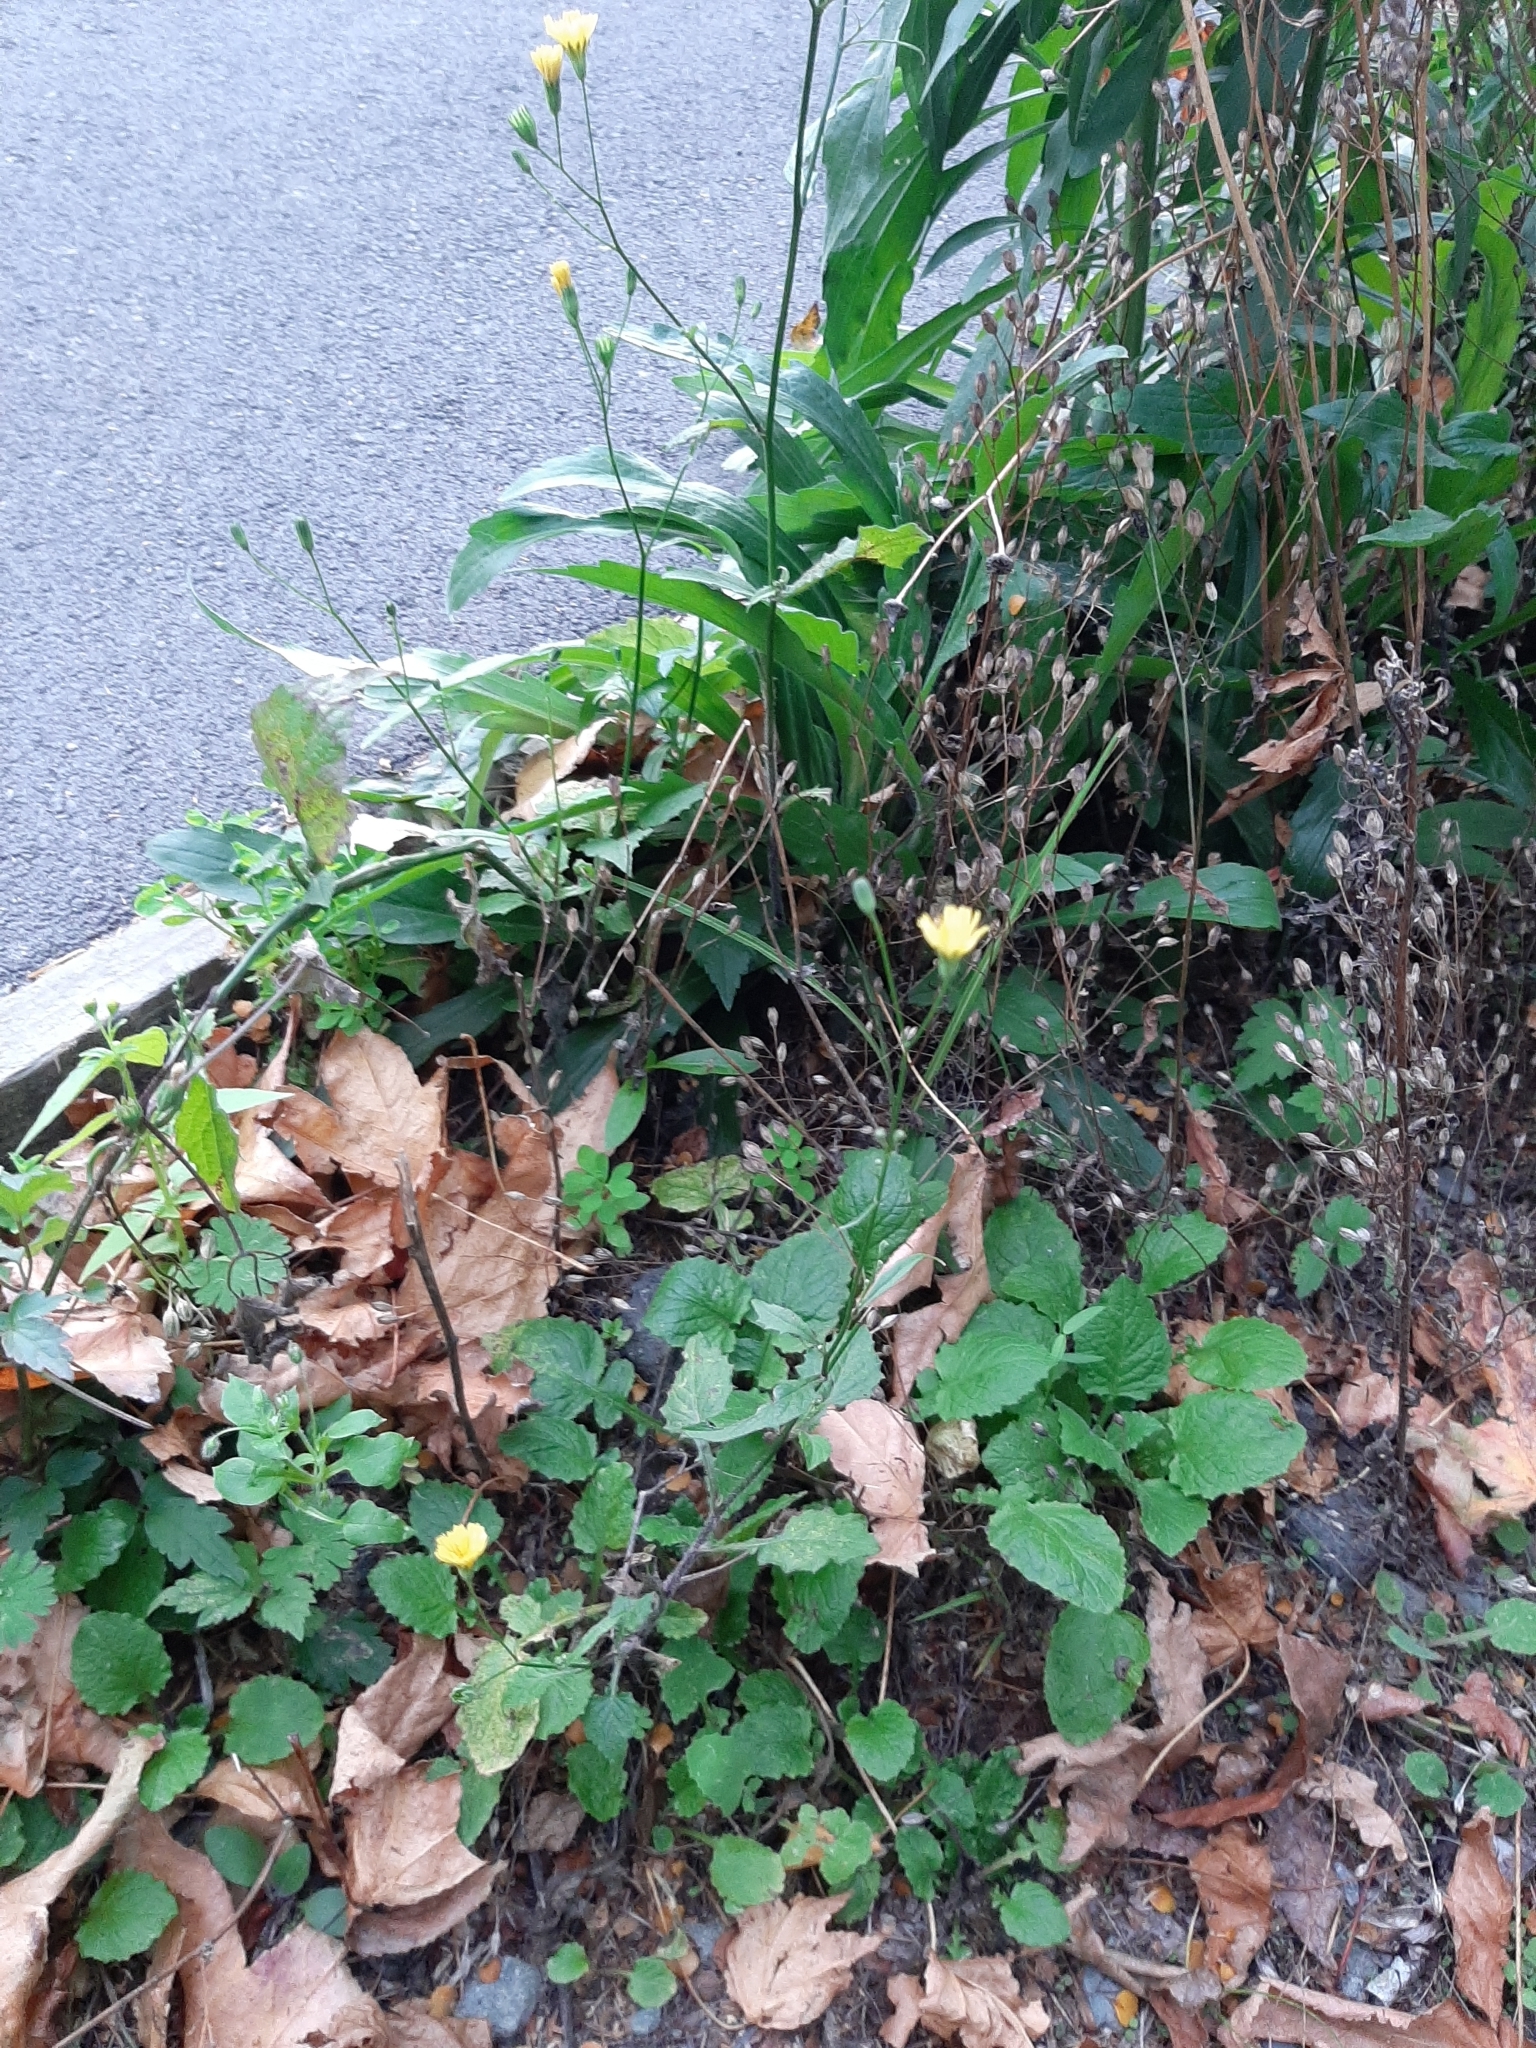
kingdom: Plantae
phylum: Tracheophyta
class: Magnoliopsida
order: Asterales
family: Asteraceae
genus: Lapsana
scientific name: Lapsana communis
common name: Nipplewort
